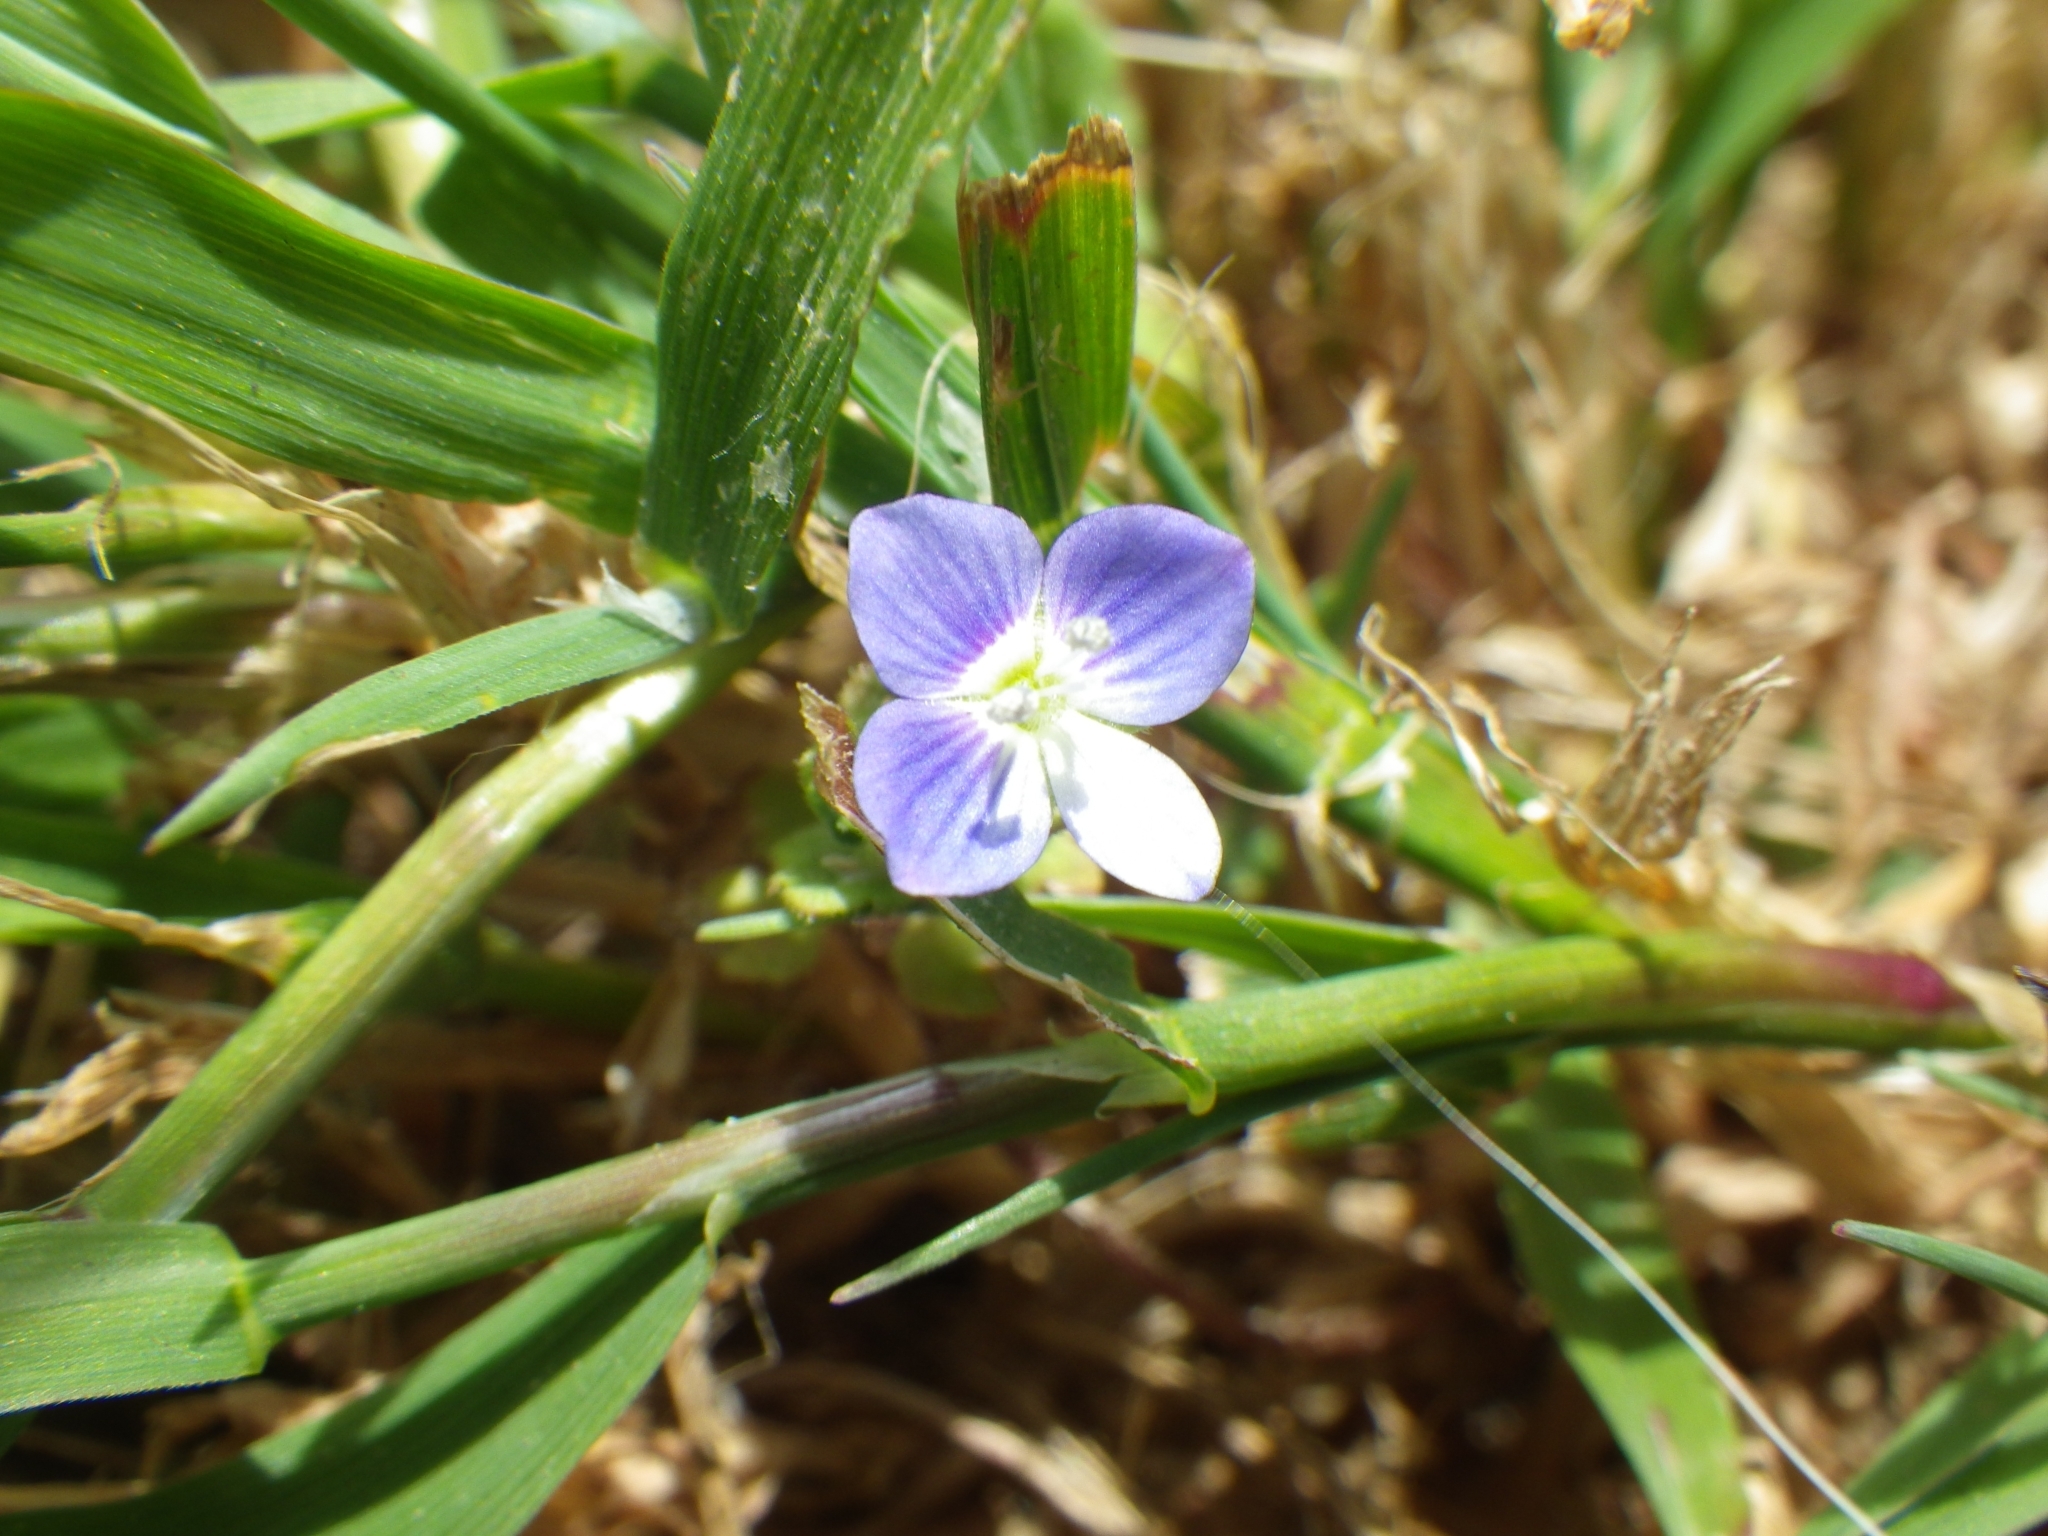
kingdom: Plantae
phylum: Tracheophyta
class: Magnoliopsida
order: Lamiales
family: Plantaginaceae
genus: Veronica
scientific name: Veronica persica
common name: Common field-speedwell
